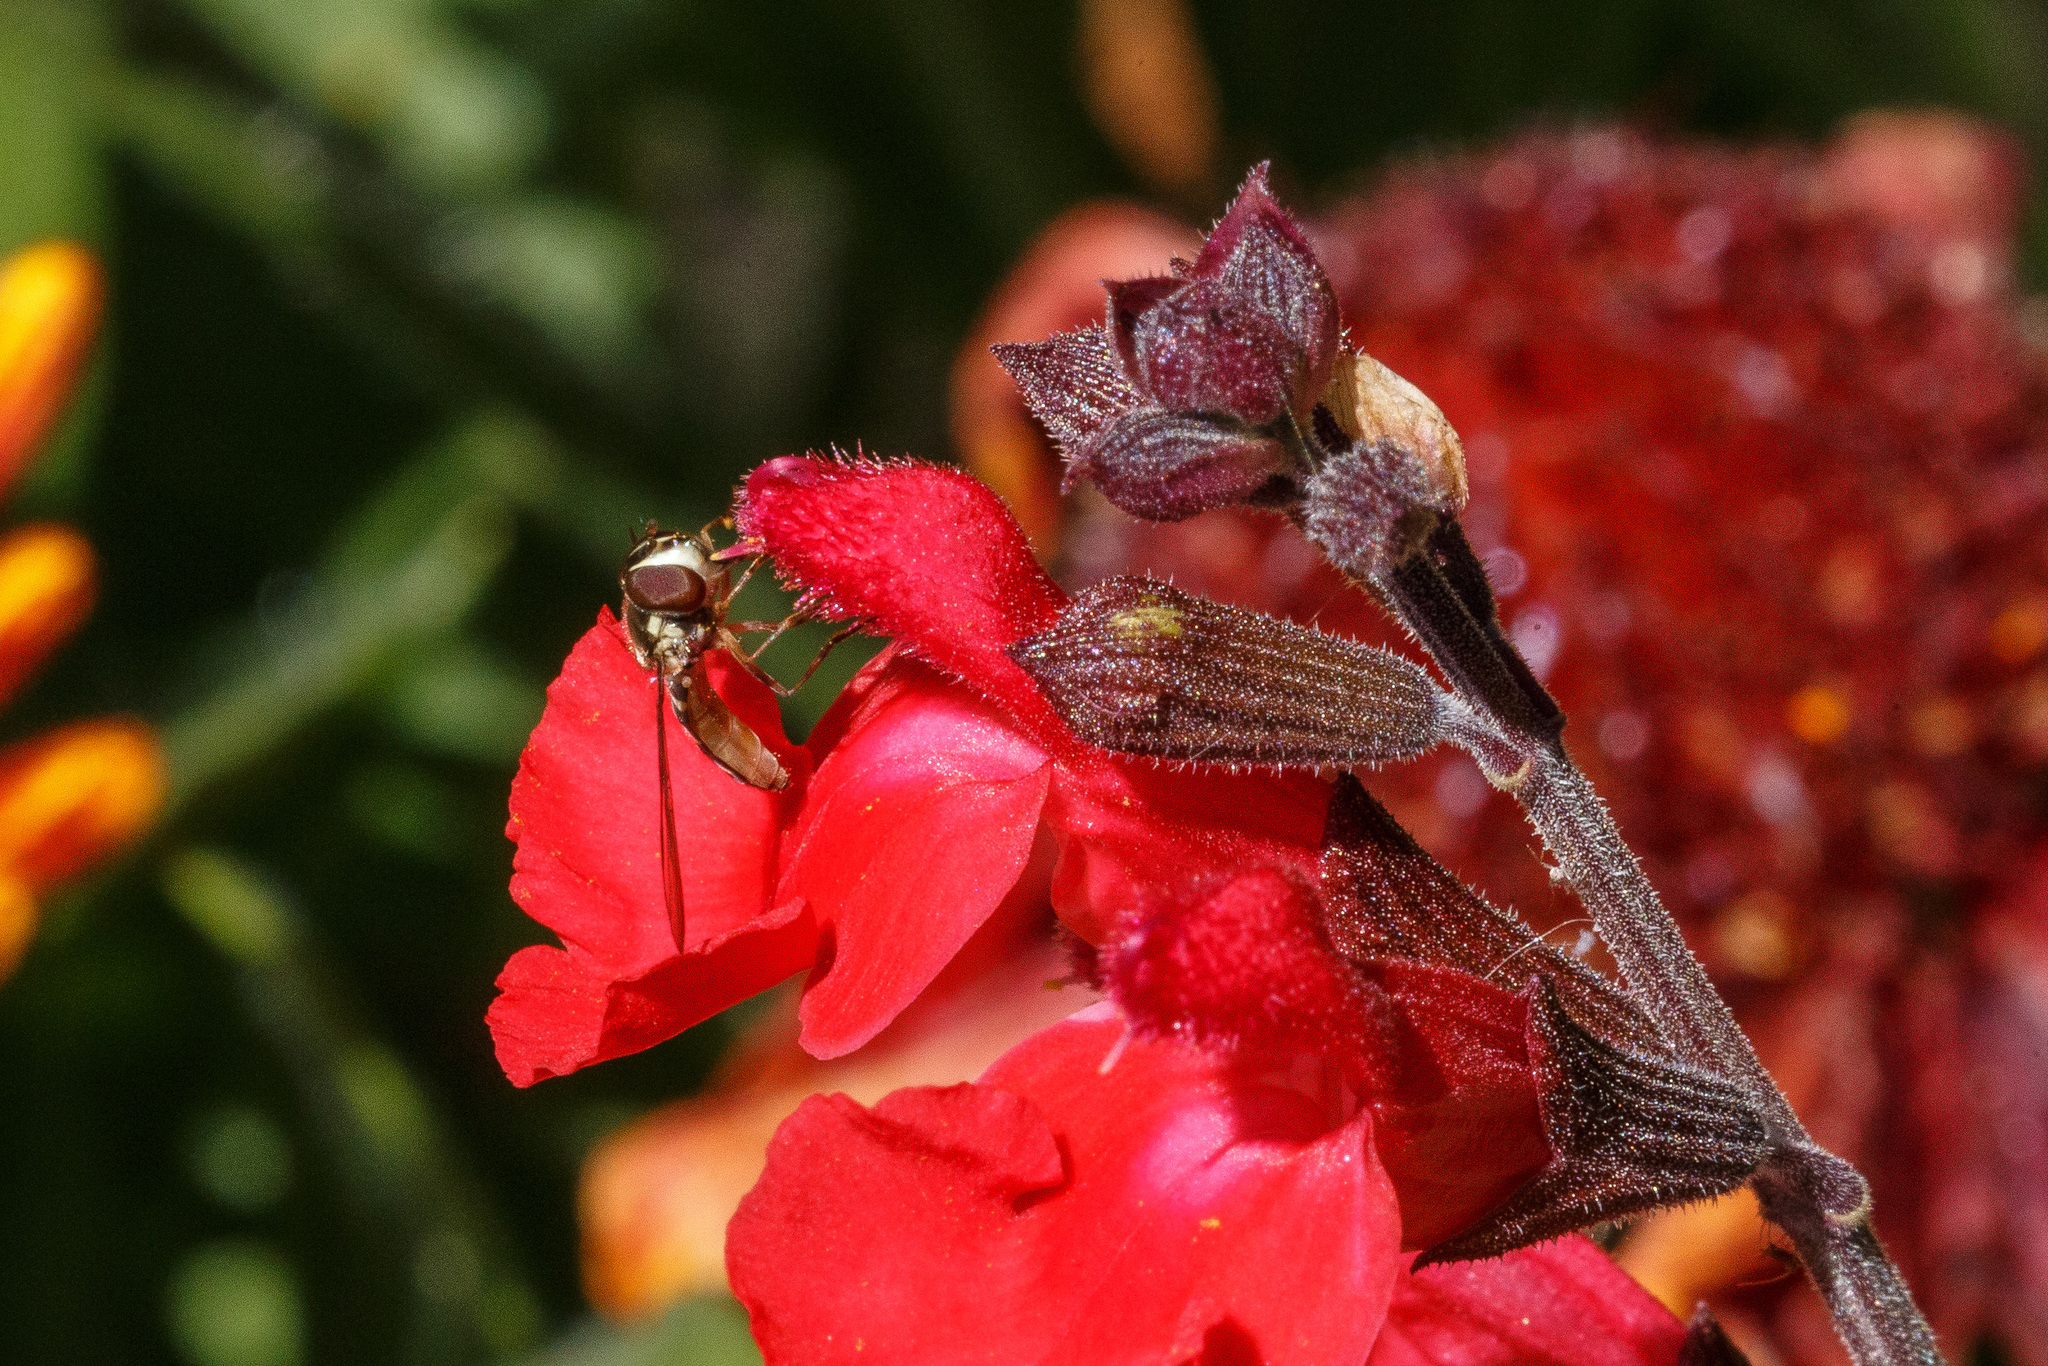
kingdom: Animalia
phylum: Arthropoda
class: Insecta
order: Diptera
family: Syrphidae
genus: Fazia
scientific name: Fazia micrura
